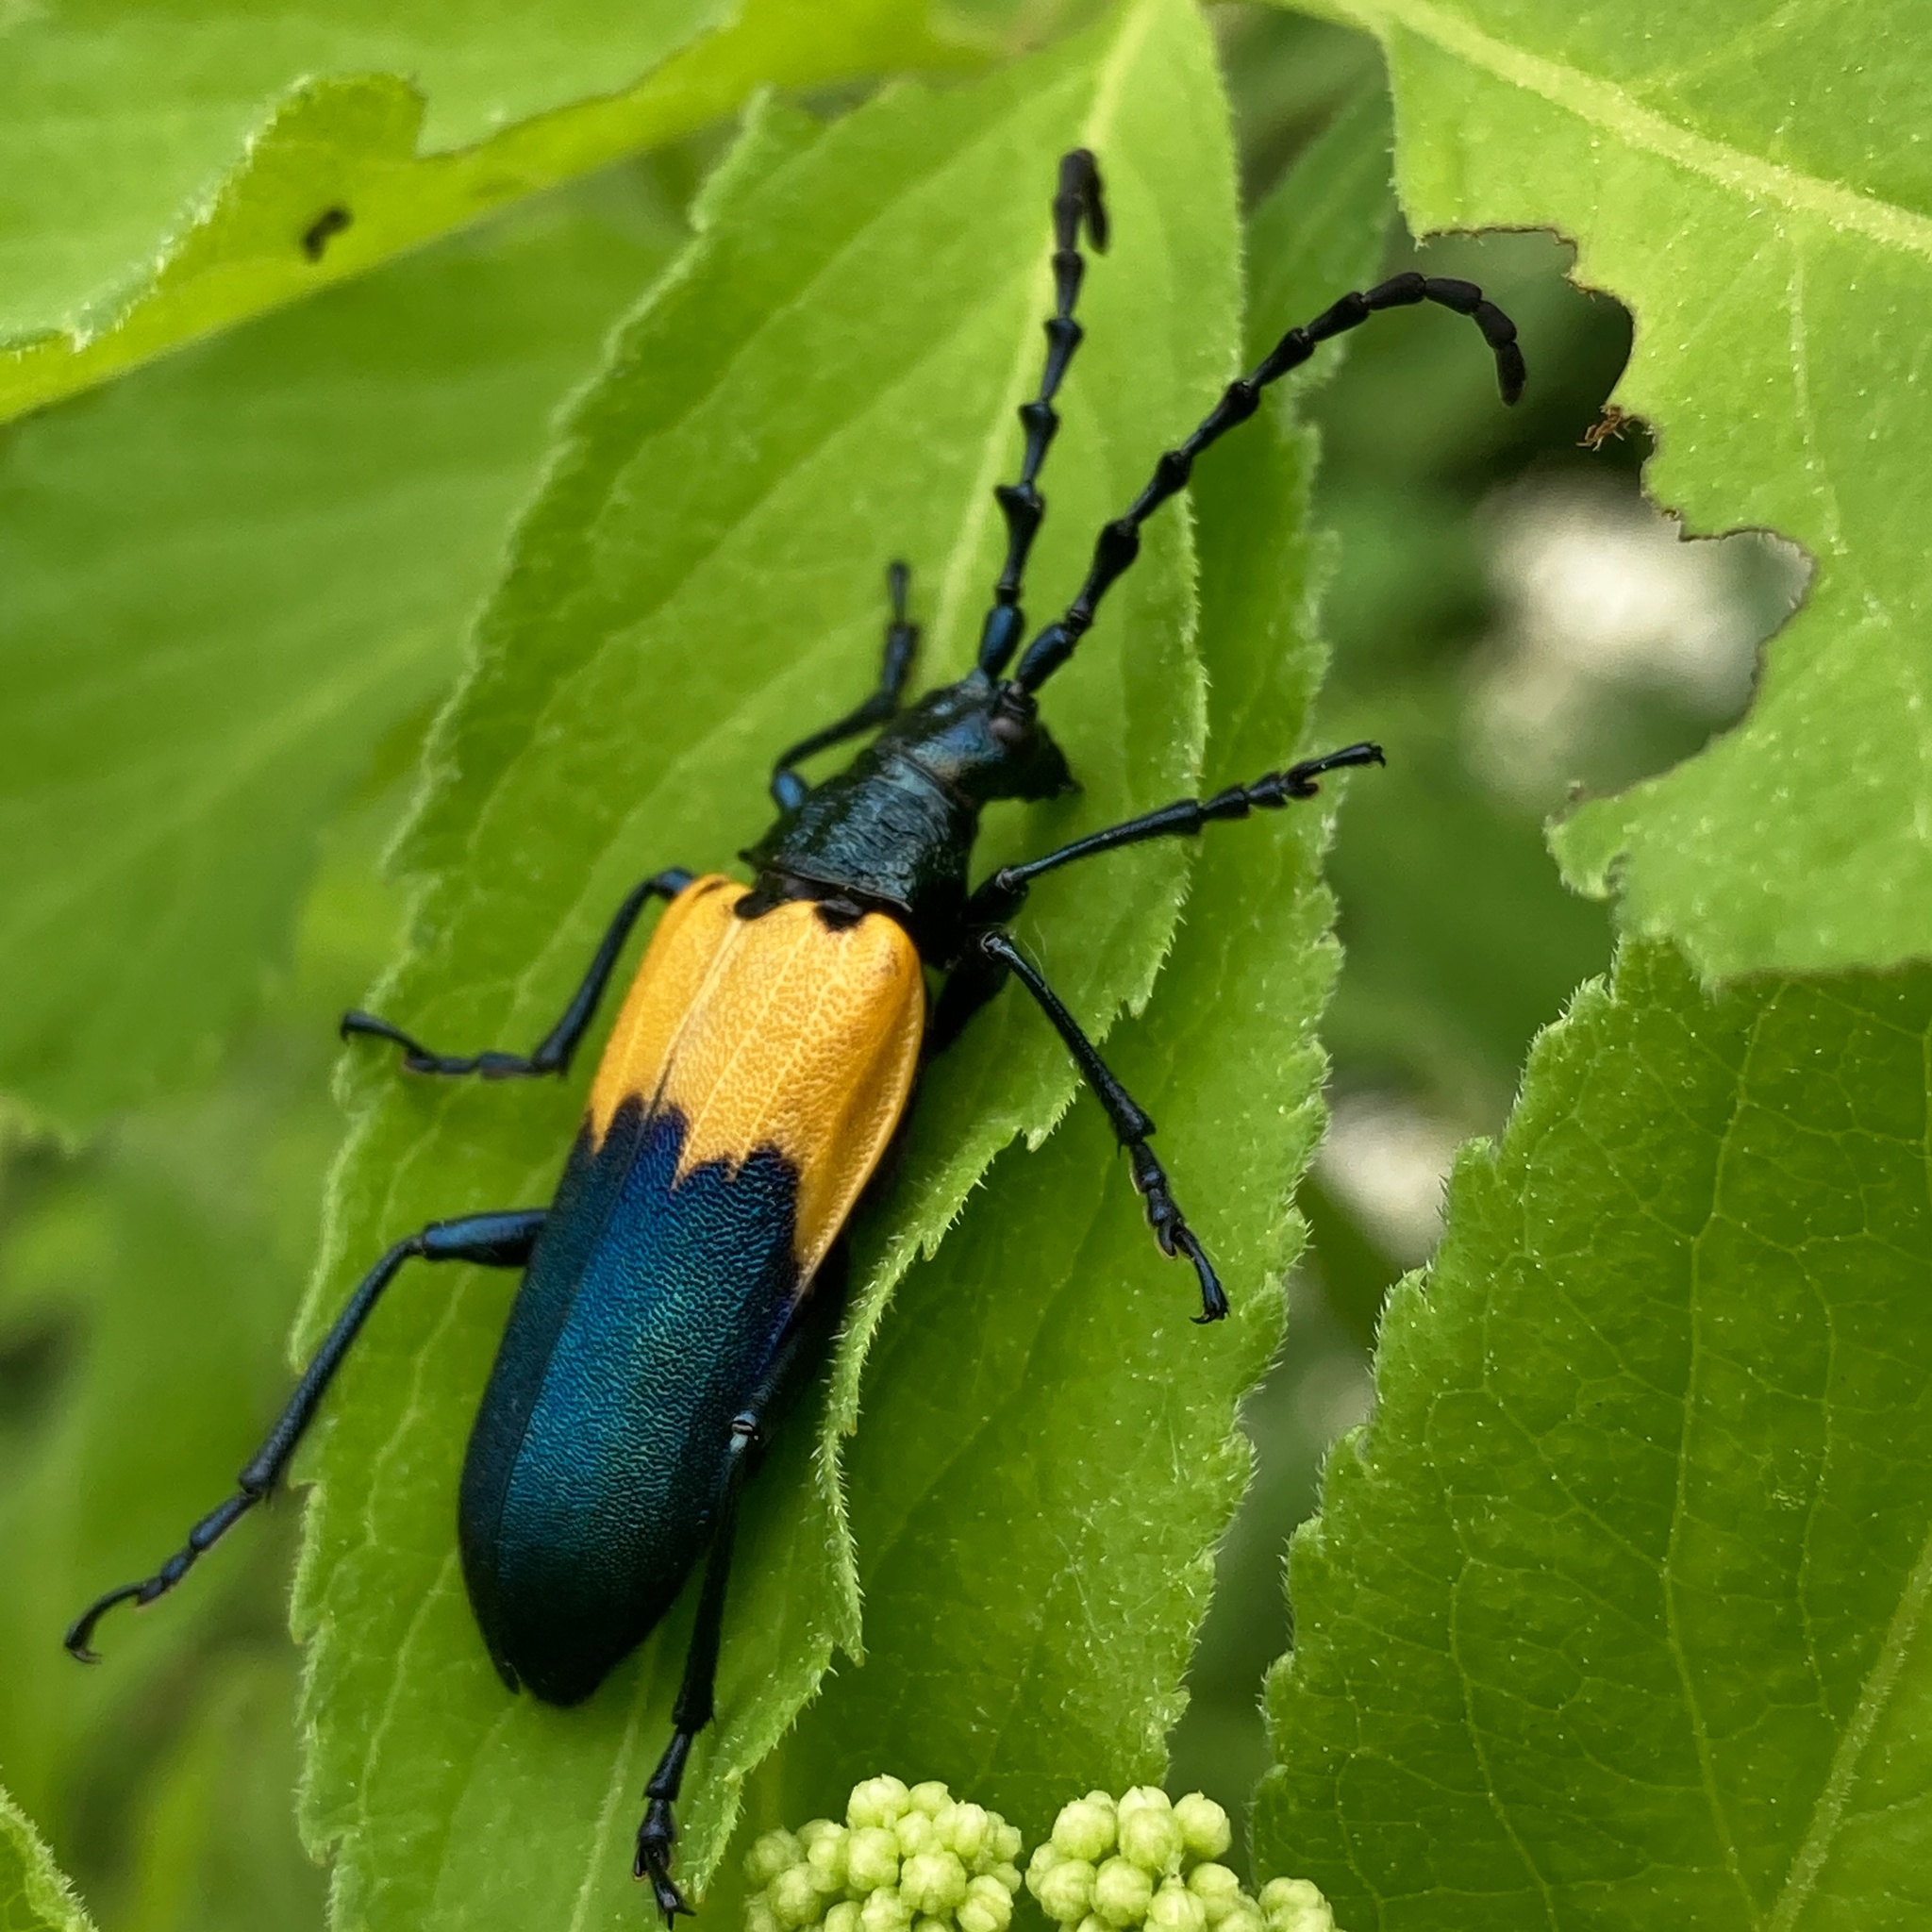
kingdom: Animalia
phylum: Arthropoda
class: Insecta
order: Coleoptera
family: Cerambycidae
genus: Desmocerus
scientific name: Desmocerus palliatus
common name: Eastern elderberry borer
